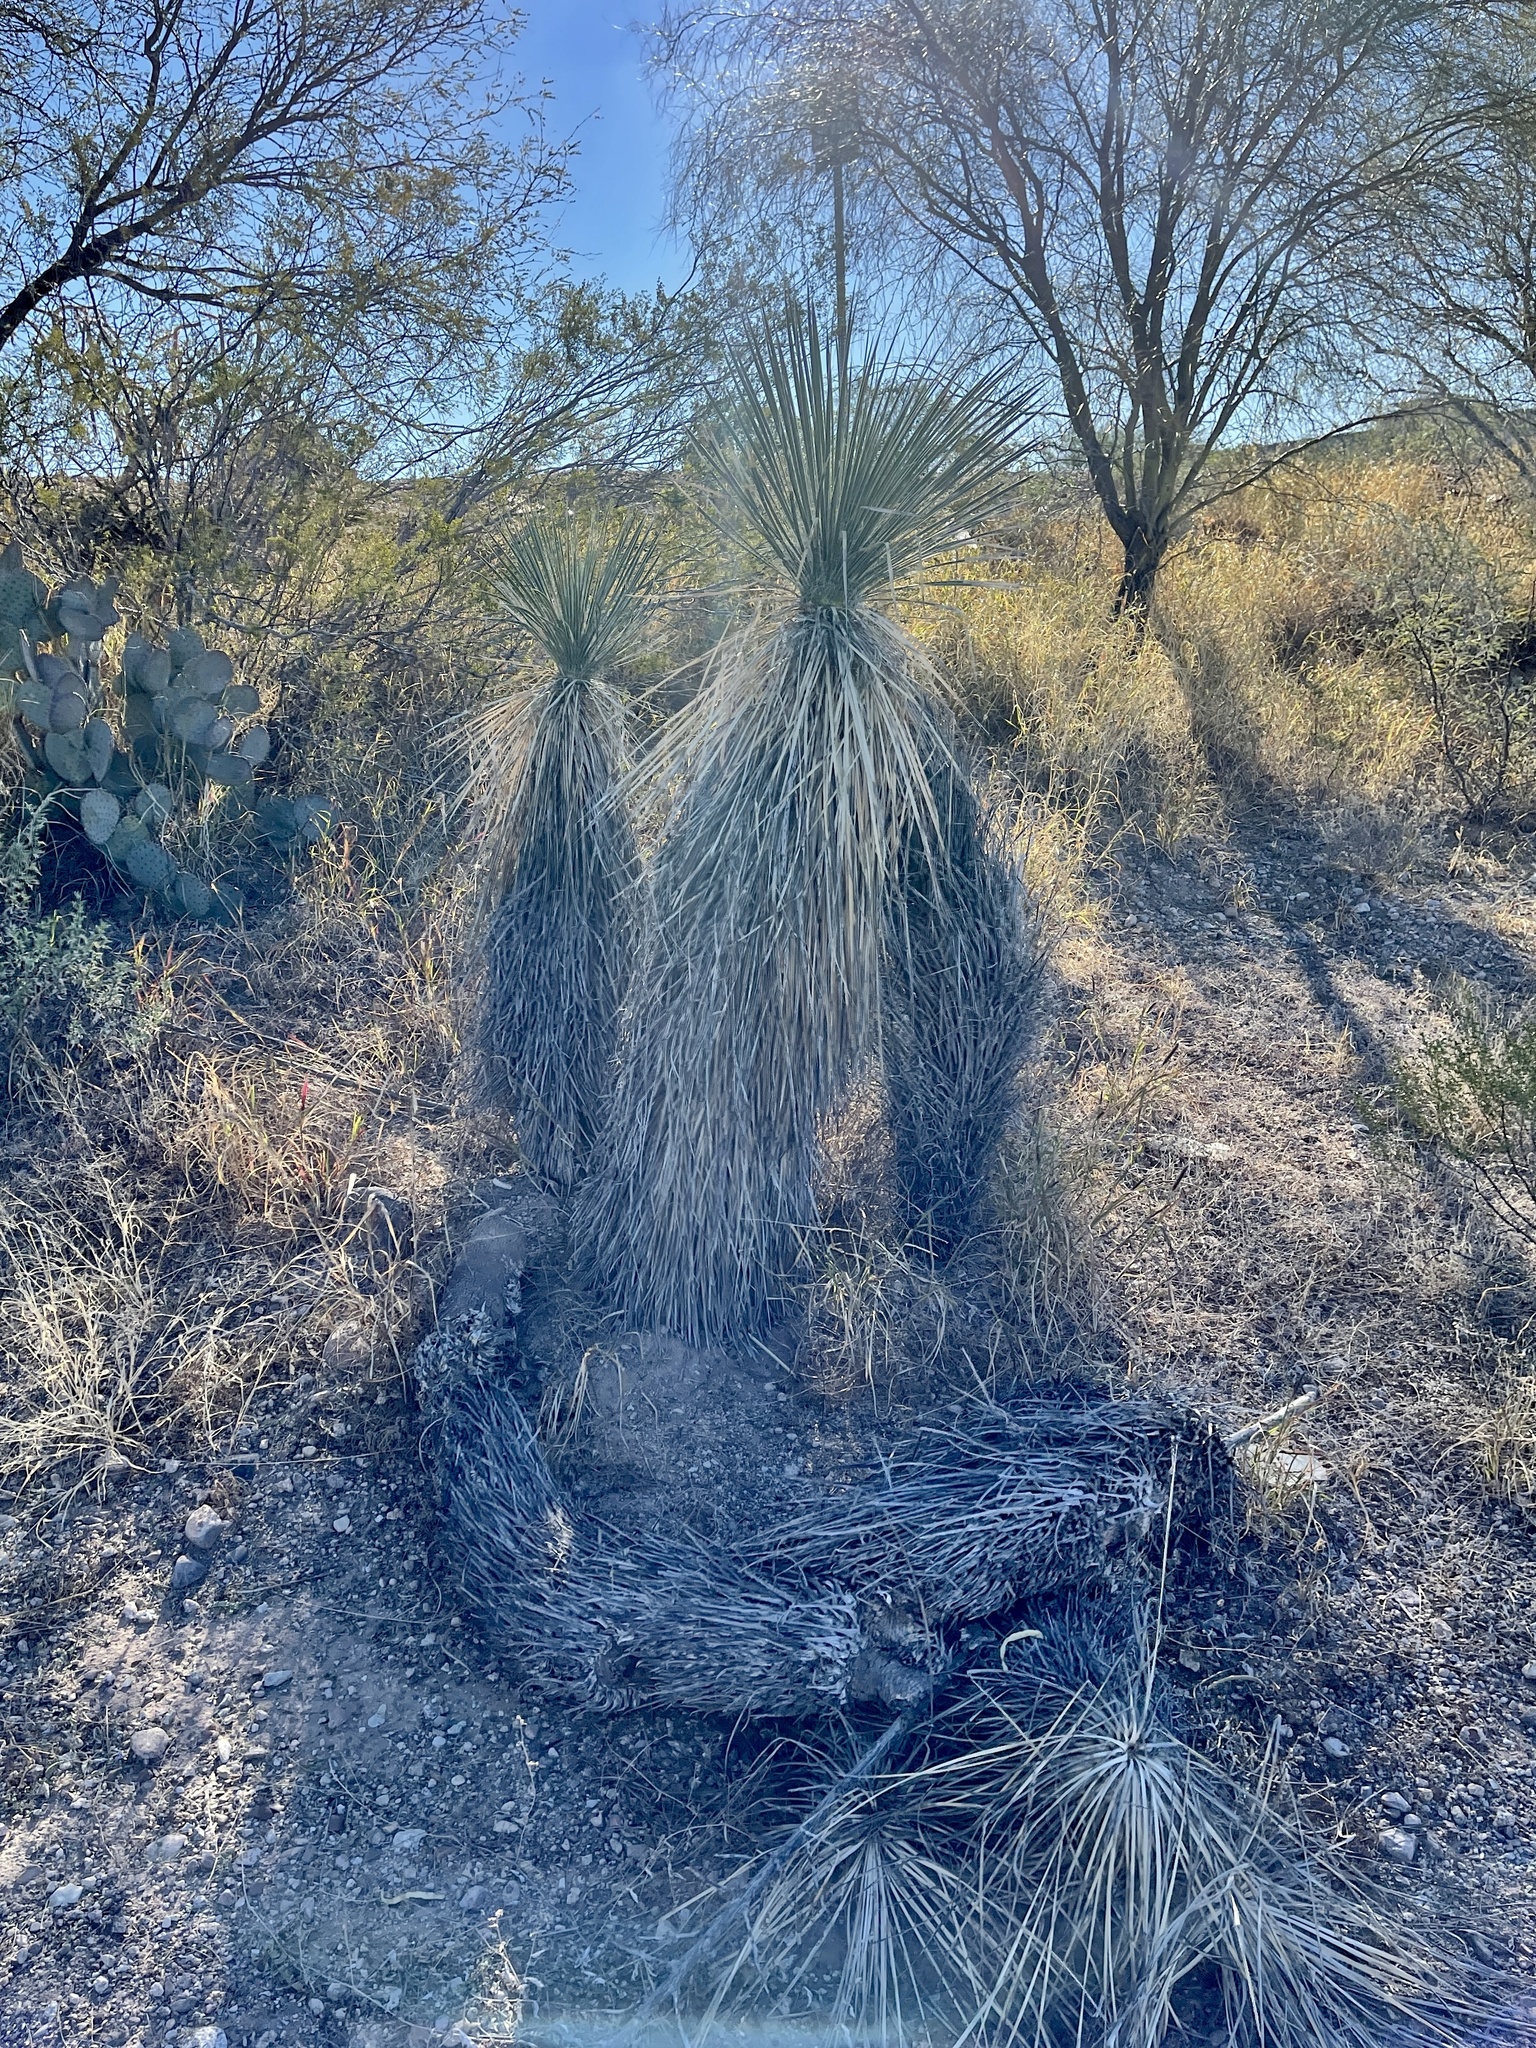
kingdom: Plantae
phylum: Tracheophyta
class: Liliopsida
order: Asparagales
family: Asparagaceae
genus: Yucca
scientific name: Yucca elata
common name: Palmella
